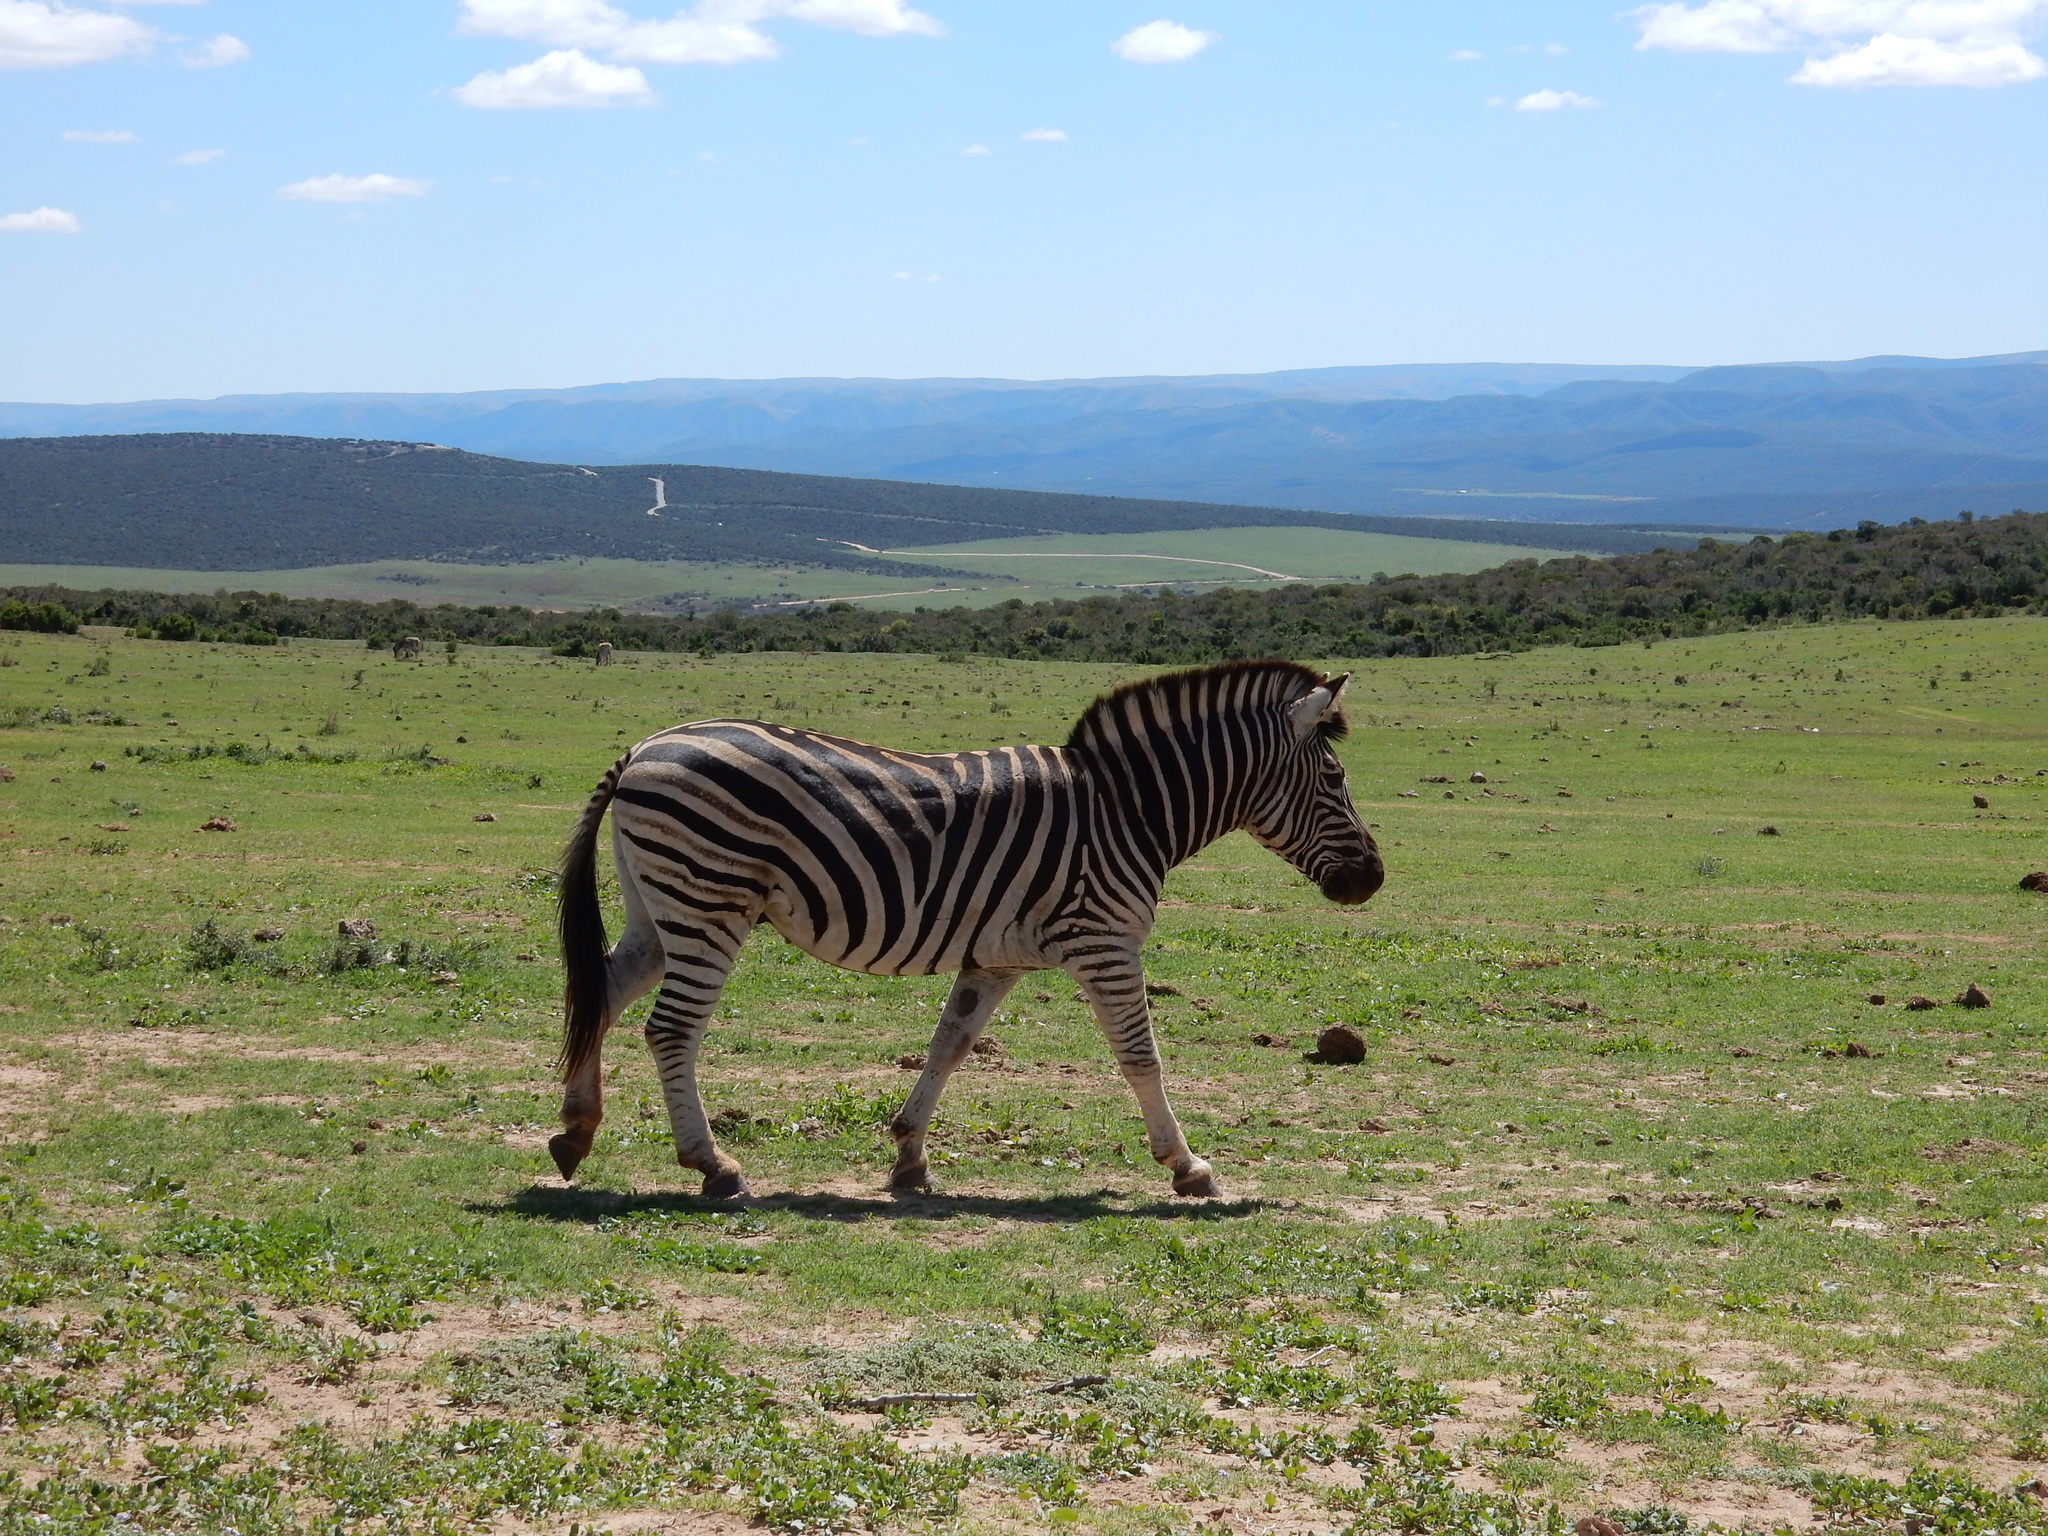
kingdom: Animalia
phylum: Chordata
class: Mammalia
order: Perissodactyla
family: Equidae
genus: Equus
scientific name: Equus quagga
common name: Plains zebra
